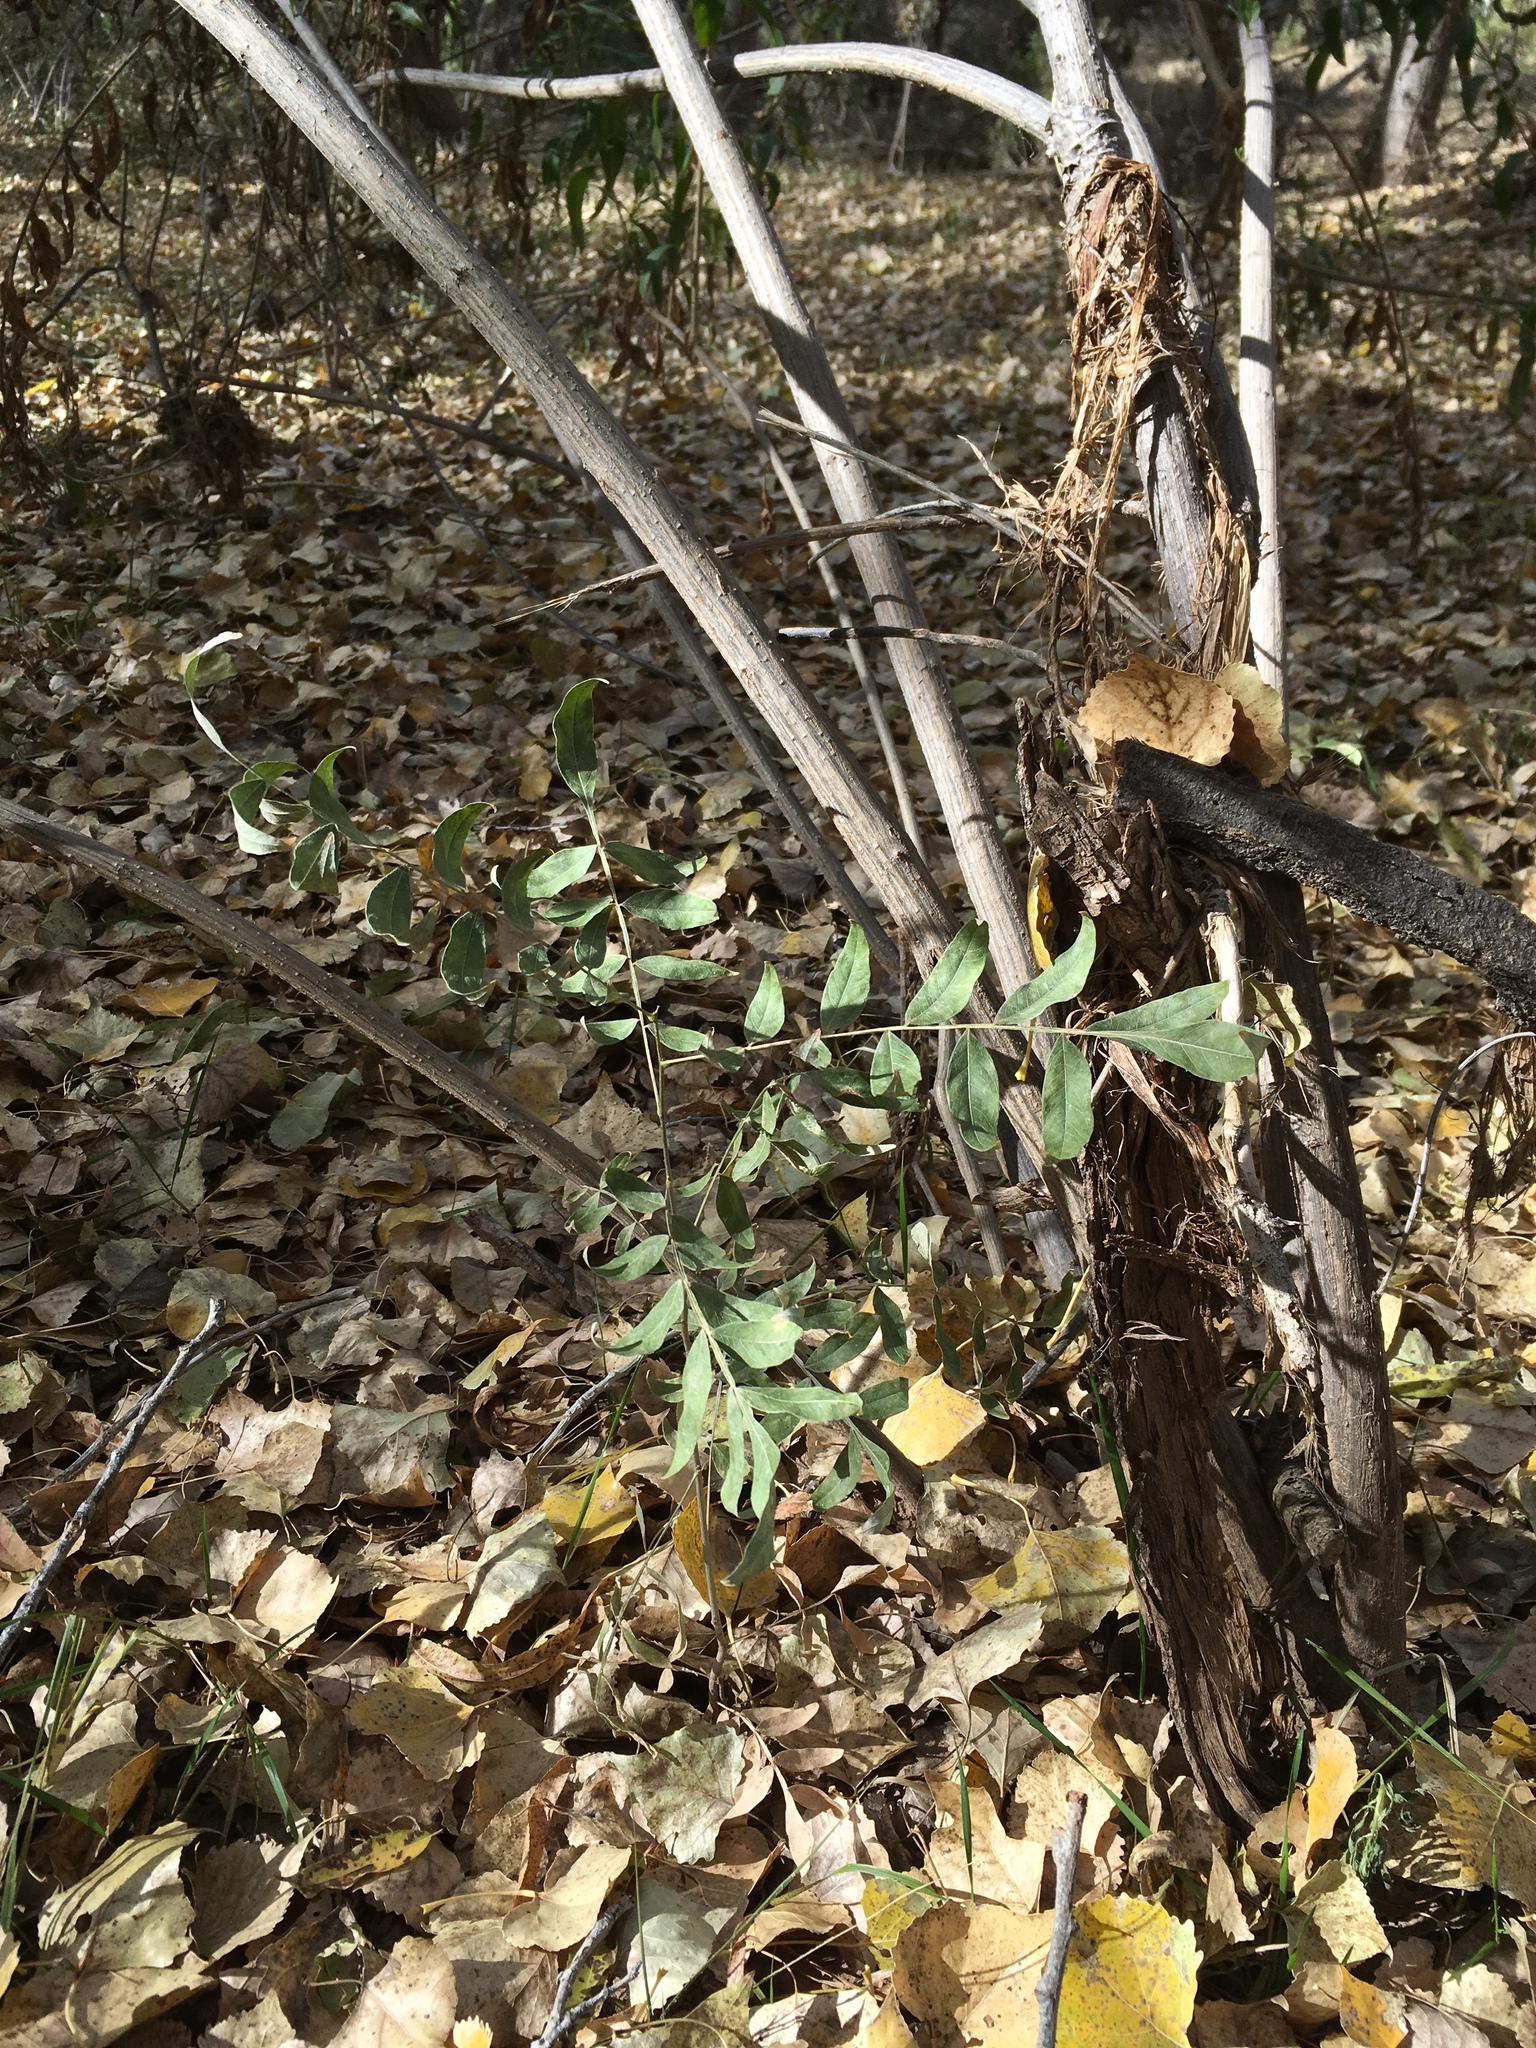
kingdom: Plantae
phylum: Tracheophyta
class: Magnoliopsida
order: Sapindales
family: Sapindaceae
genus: Sapindus
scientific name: Sapindus drummondii
